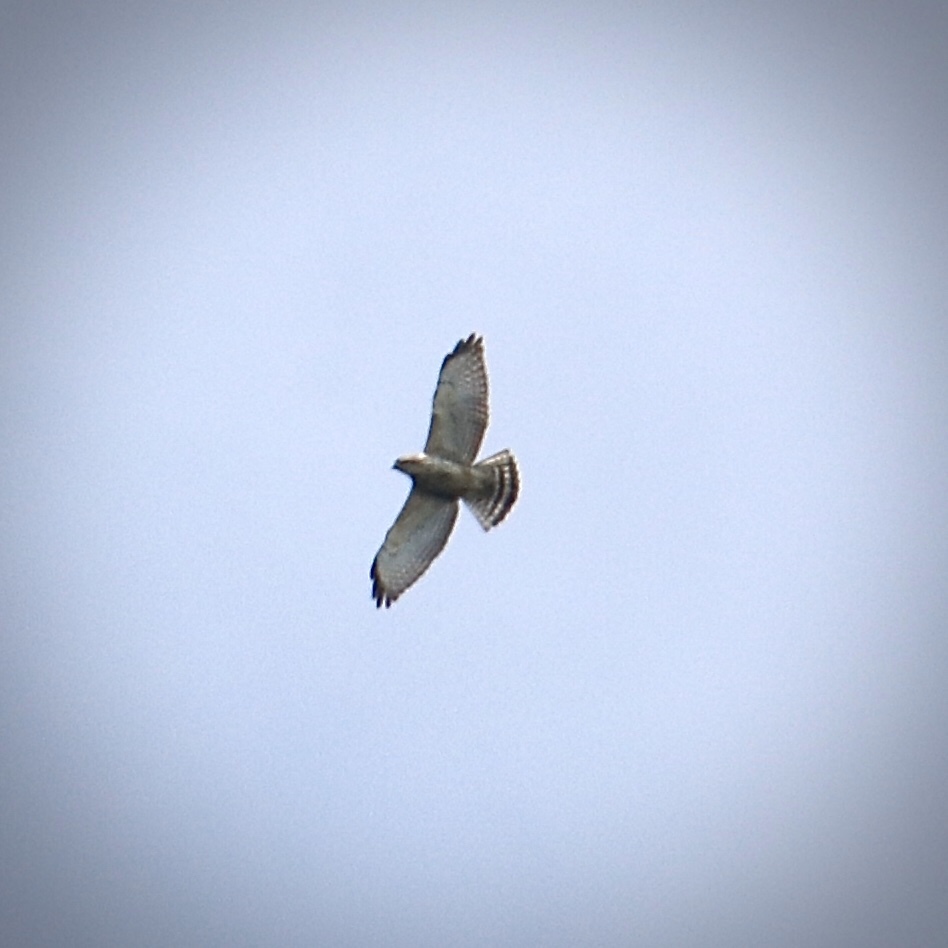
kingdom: Animalia
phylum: Chordata
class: Aves
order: Accipitriformes
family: Accipitridae
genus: Buteo
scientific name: Buteo platypterus
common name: Broad-winged hawk
